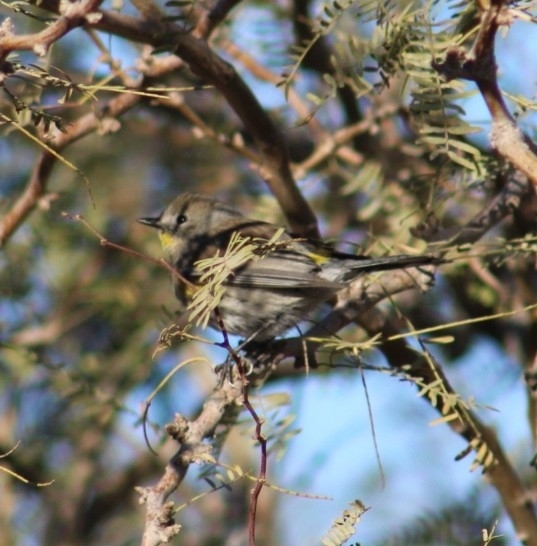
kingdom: Animalia
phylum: Chordata
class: Aves
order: Passeriformes
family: Parulidae
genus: Setophaga
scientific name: Setophaga coronata
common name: Myrtle warbler
